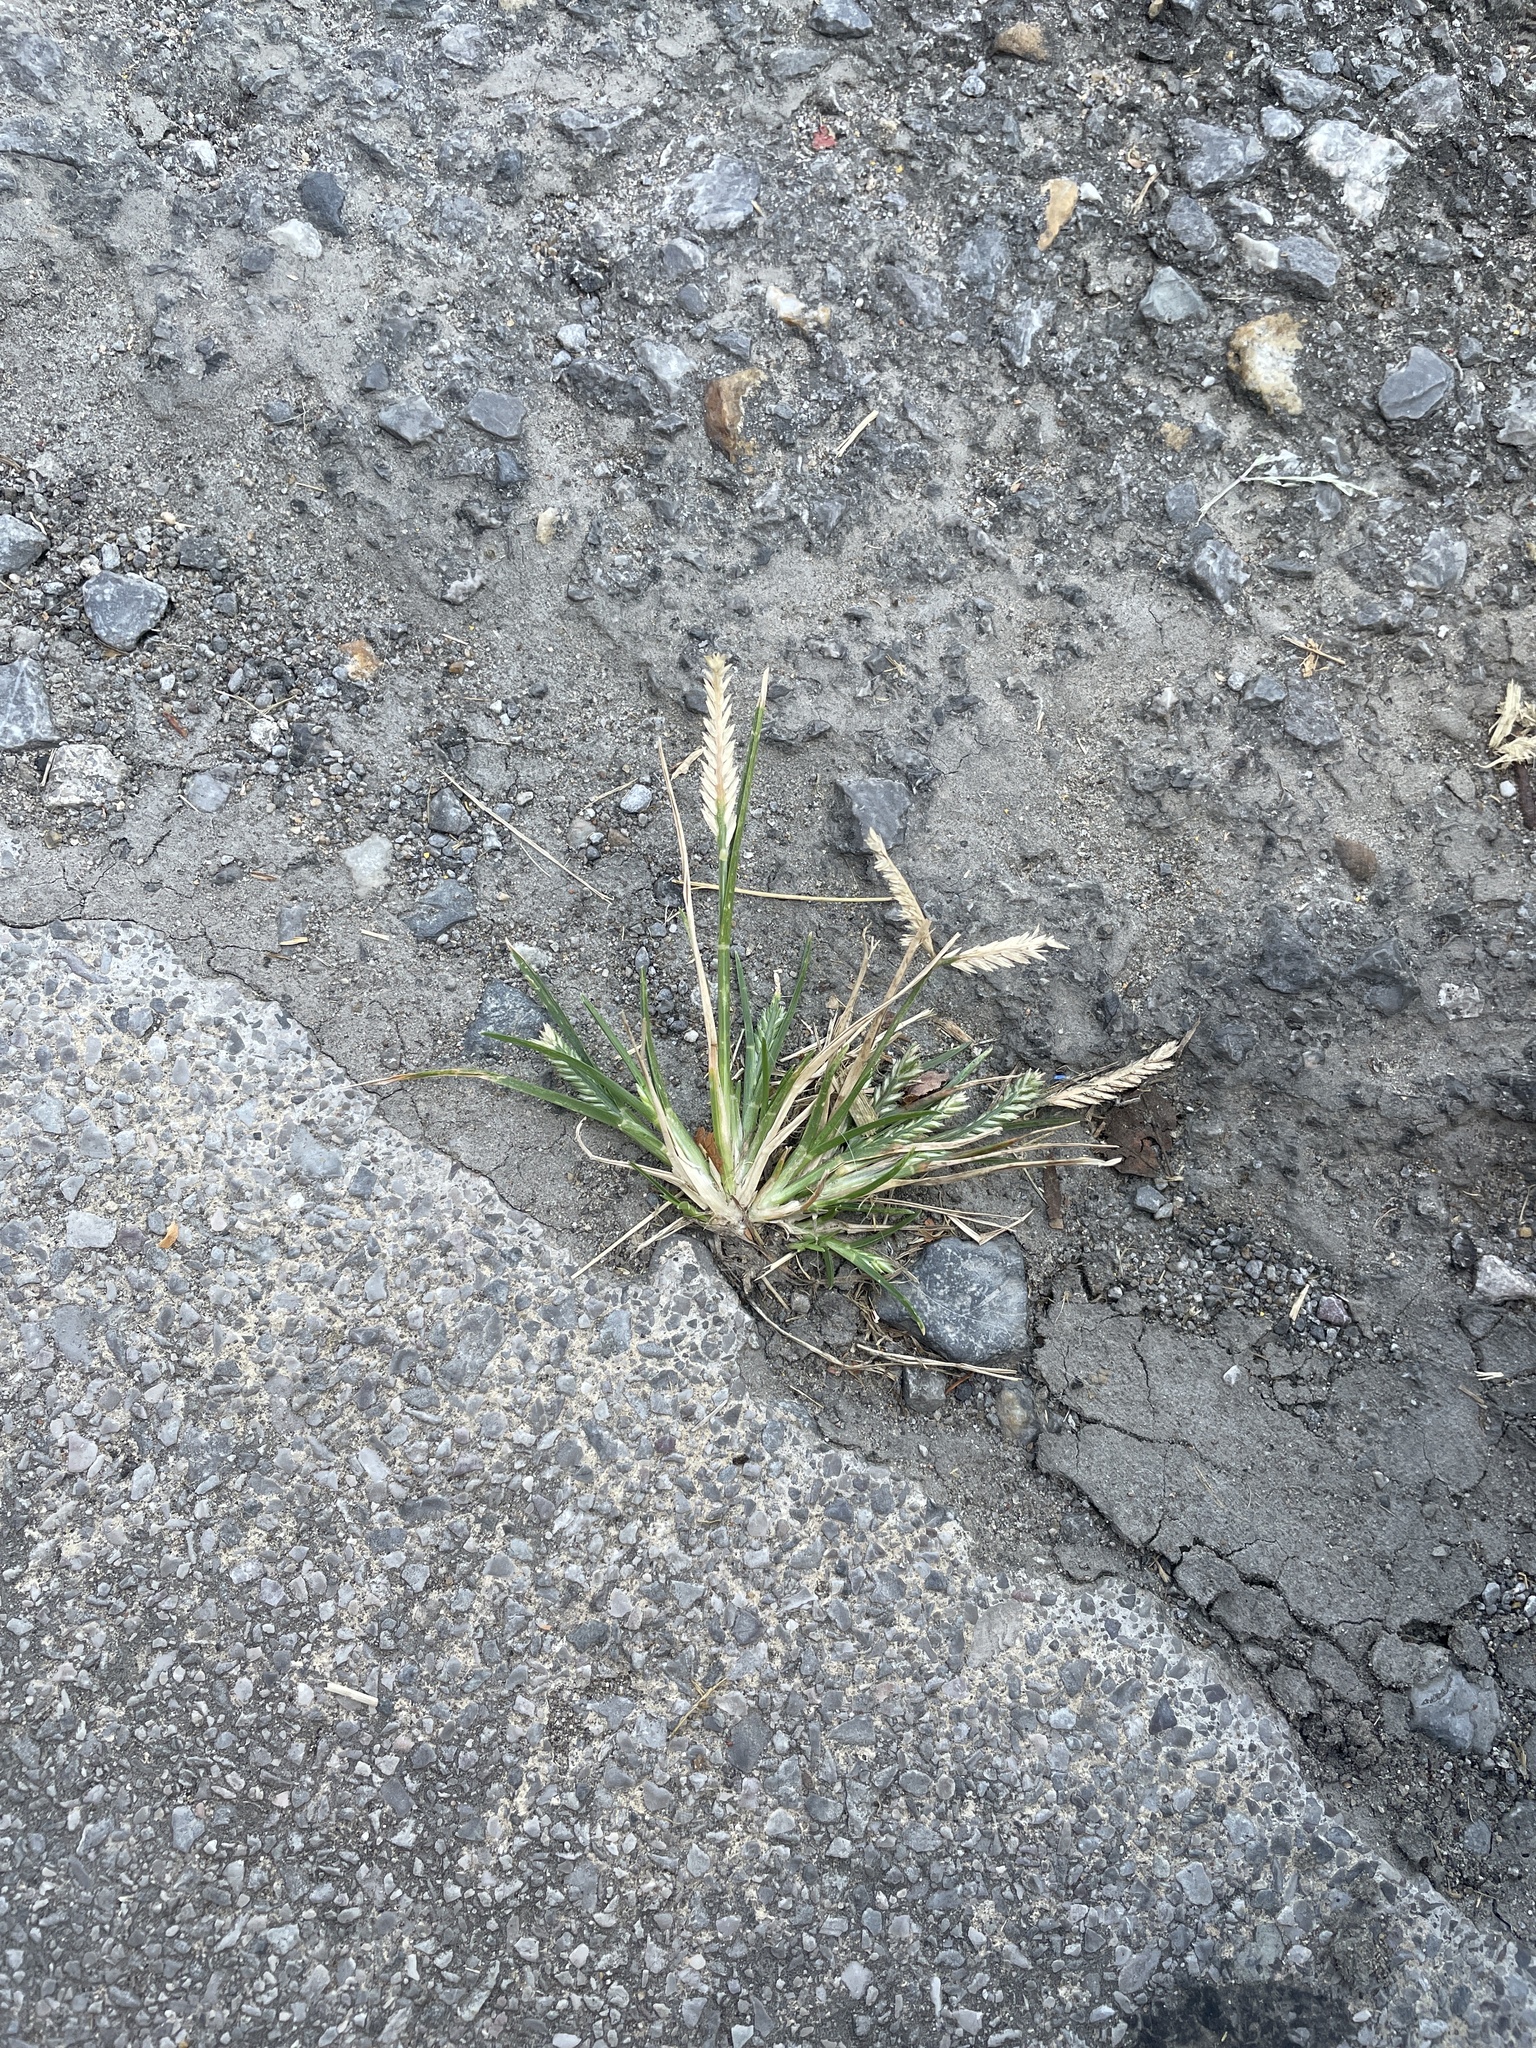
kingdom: Plantae
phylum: Tracheophyta
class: Liliopsida
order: Poales
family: Poaceae
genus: Eleusine
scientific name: Eleusine indica
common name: Yard-grass
